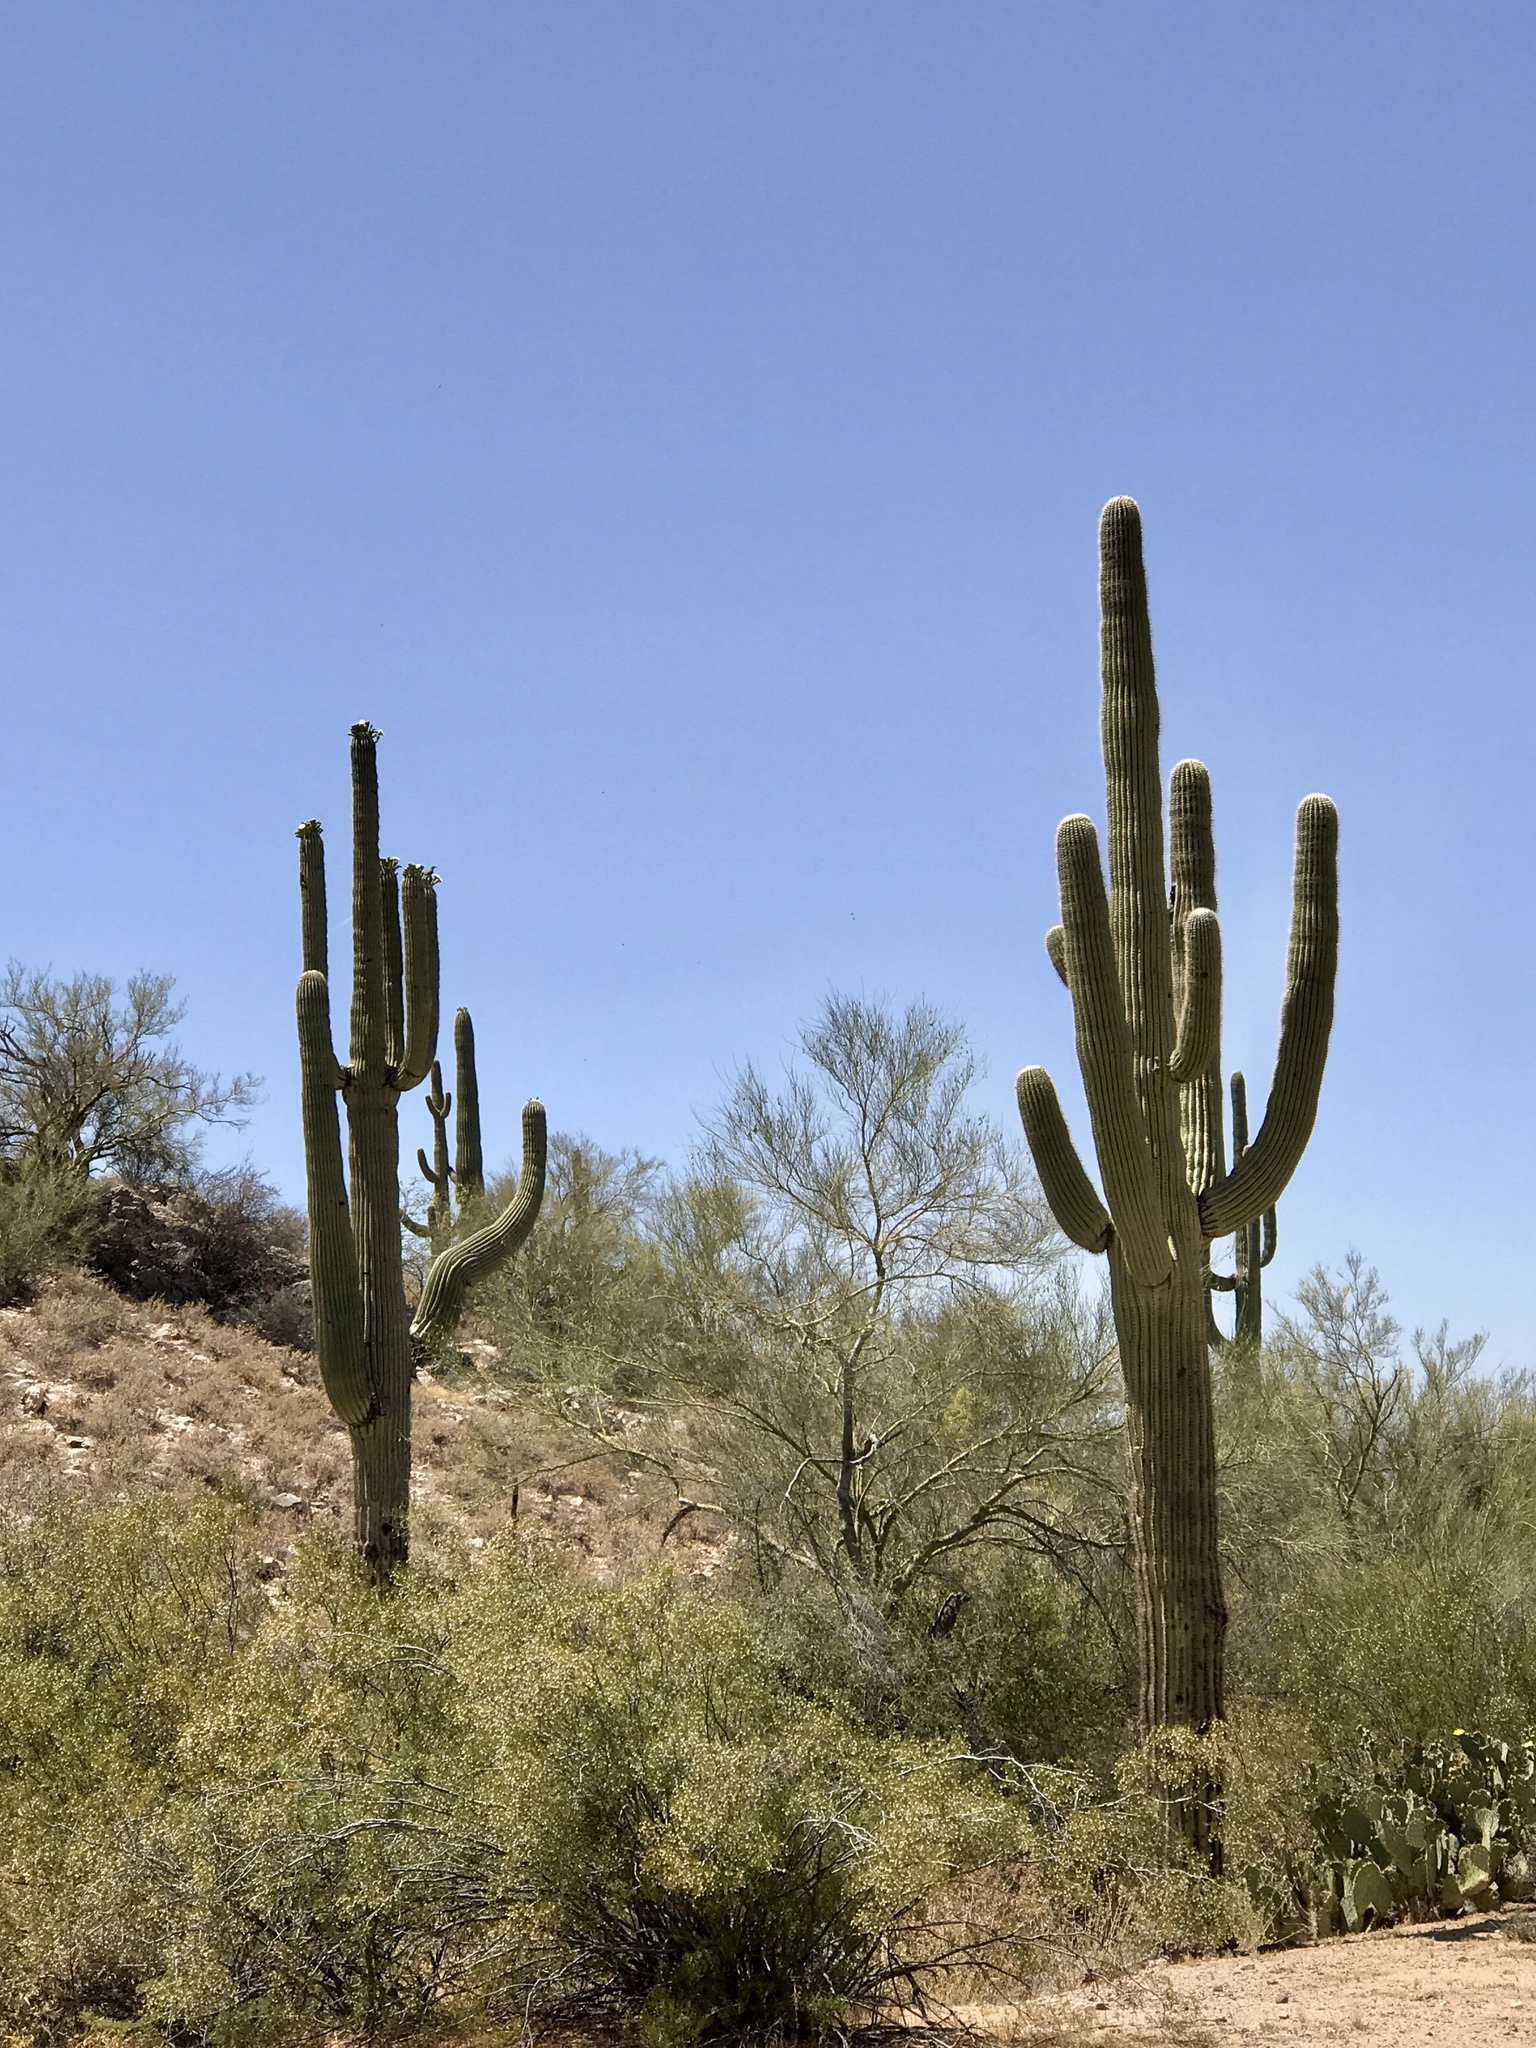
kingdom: Plantae
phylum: Tracheophyta
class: Magnoliopsida
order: Caryophyllales
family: Cactaceae
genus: Carnegiea
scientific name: Carnegiea gigantea
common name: Saguaro
